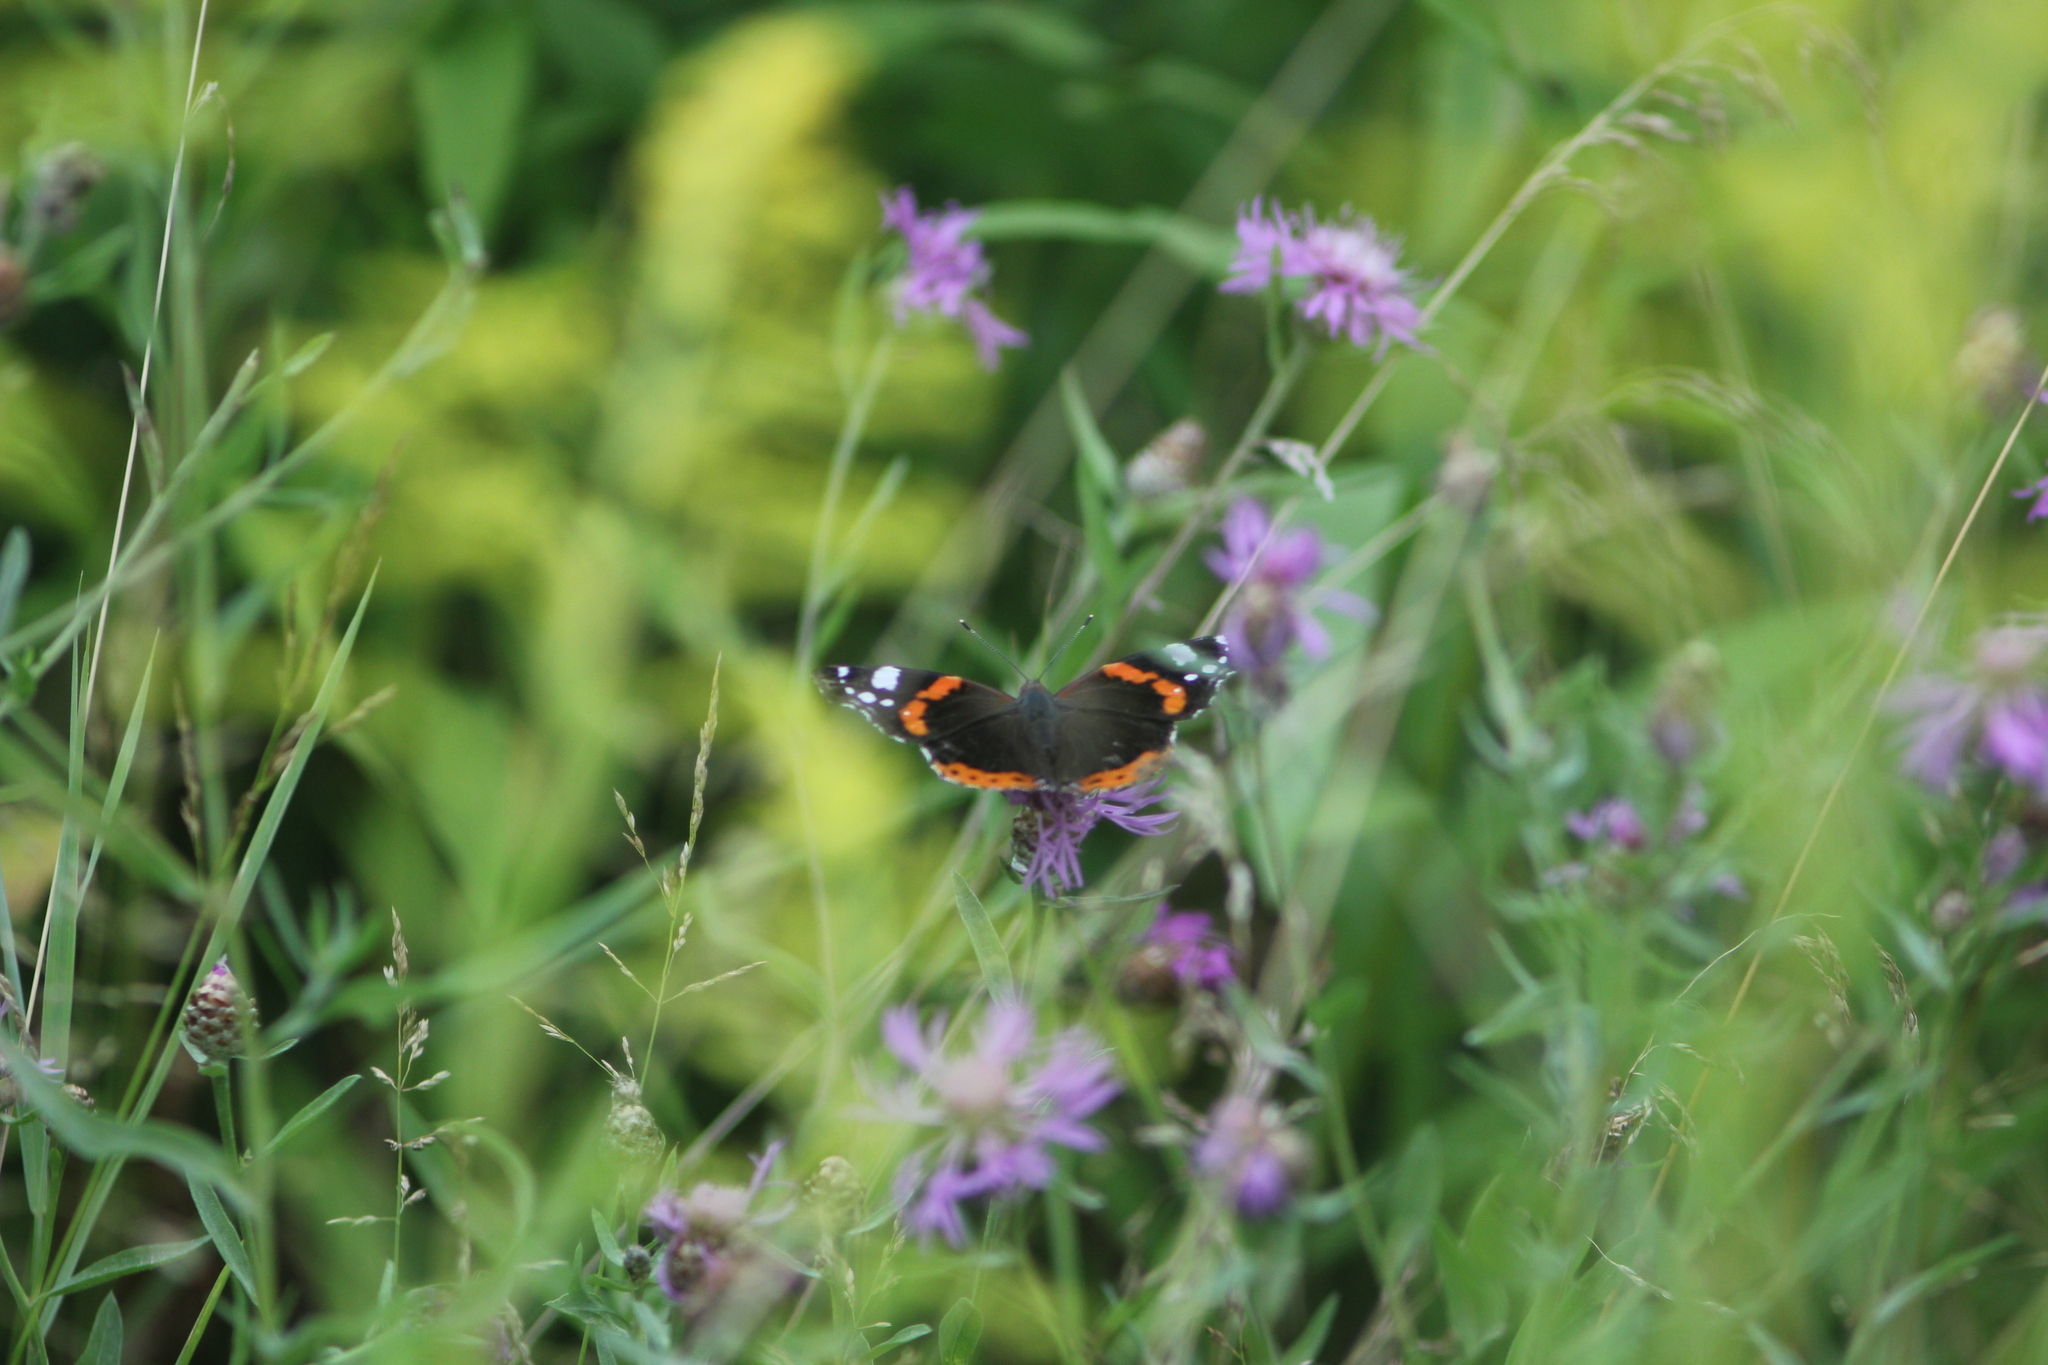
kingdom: Animalia
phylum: Arthropoda
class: Insecta
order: Lepidoptera
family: Nymphalidae
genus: Vanessa
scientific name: Vanessa atalanta
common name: Red admiral
